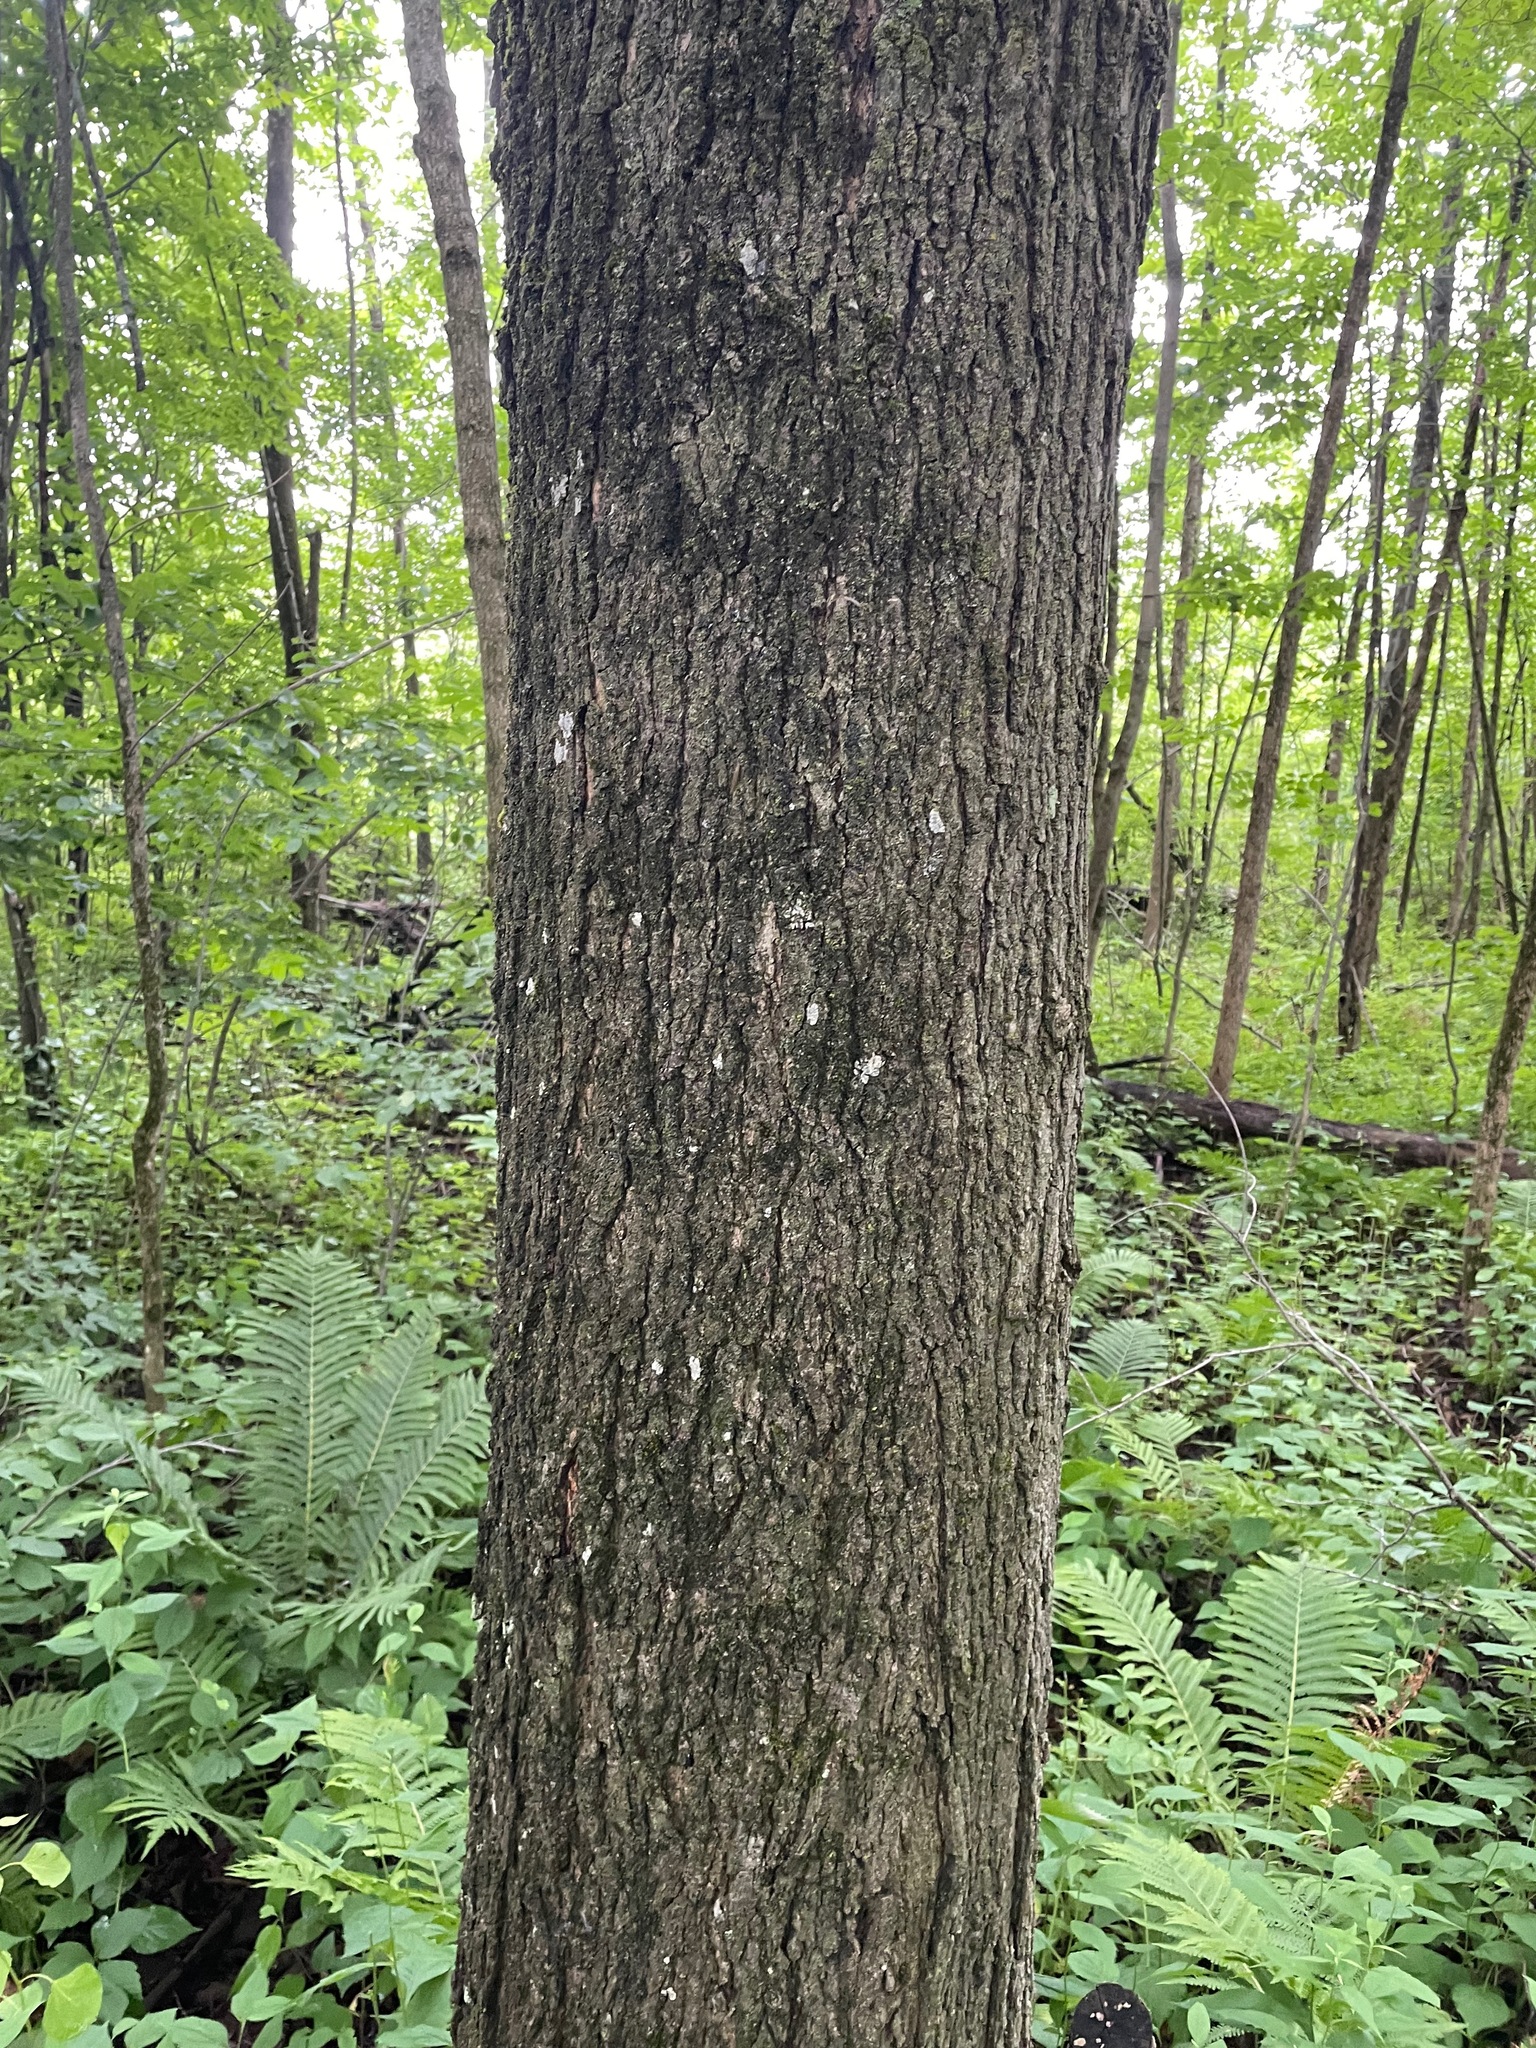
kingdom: Plantae
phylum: Tracheophyta
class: Magnoliopsida
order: Sapindales
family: Sapindaceae
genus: Acer
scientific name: Acer nigrum
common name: Black maple
